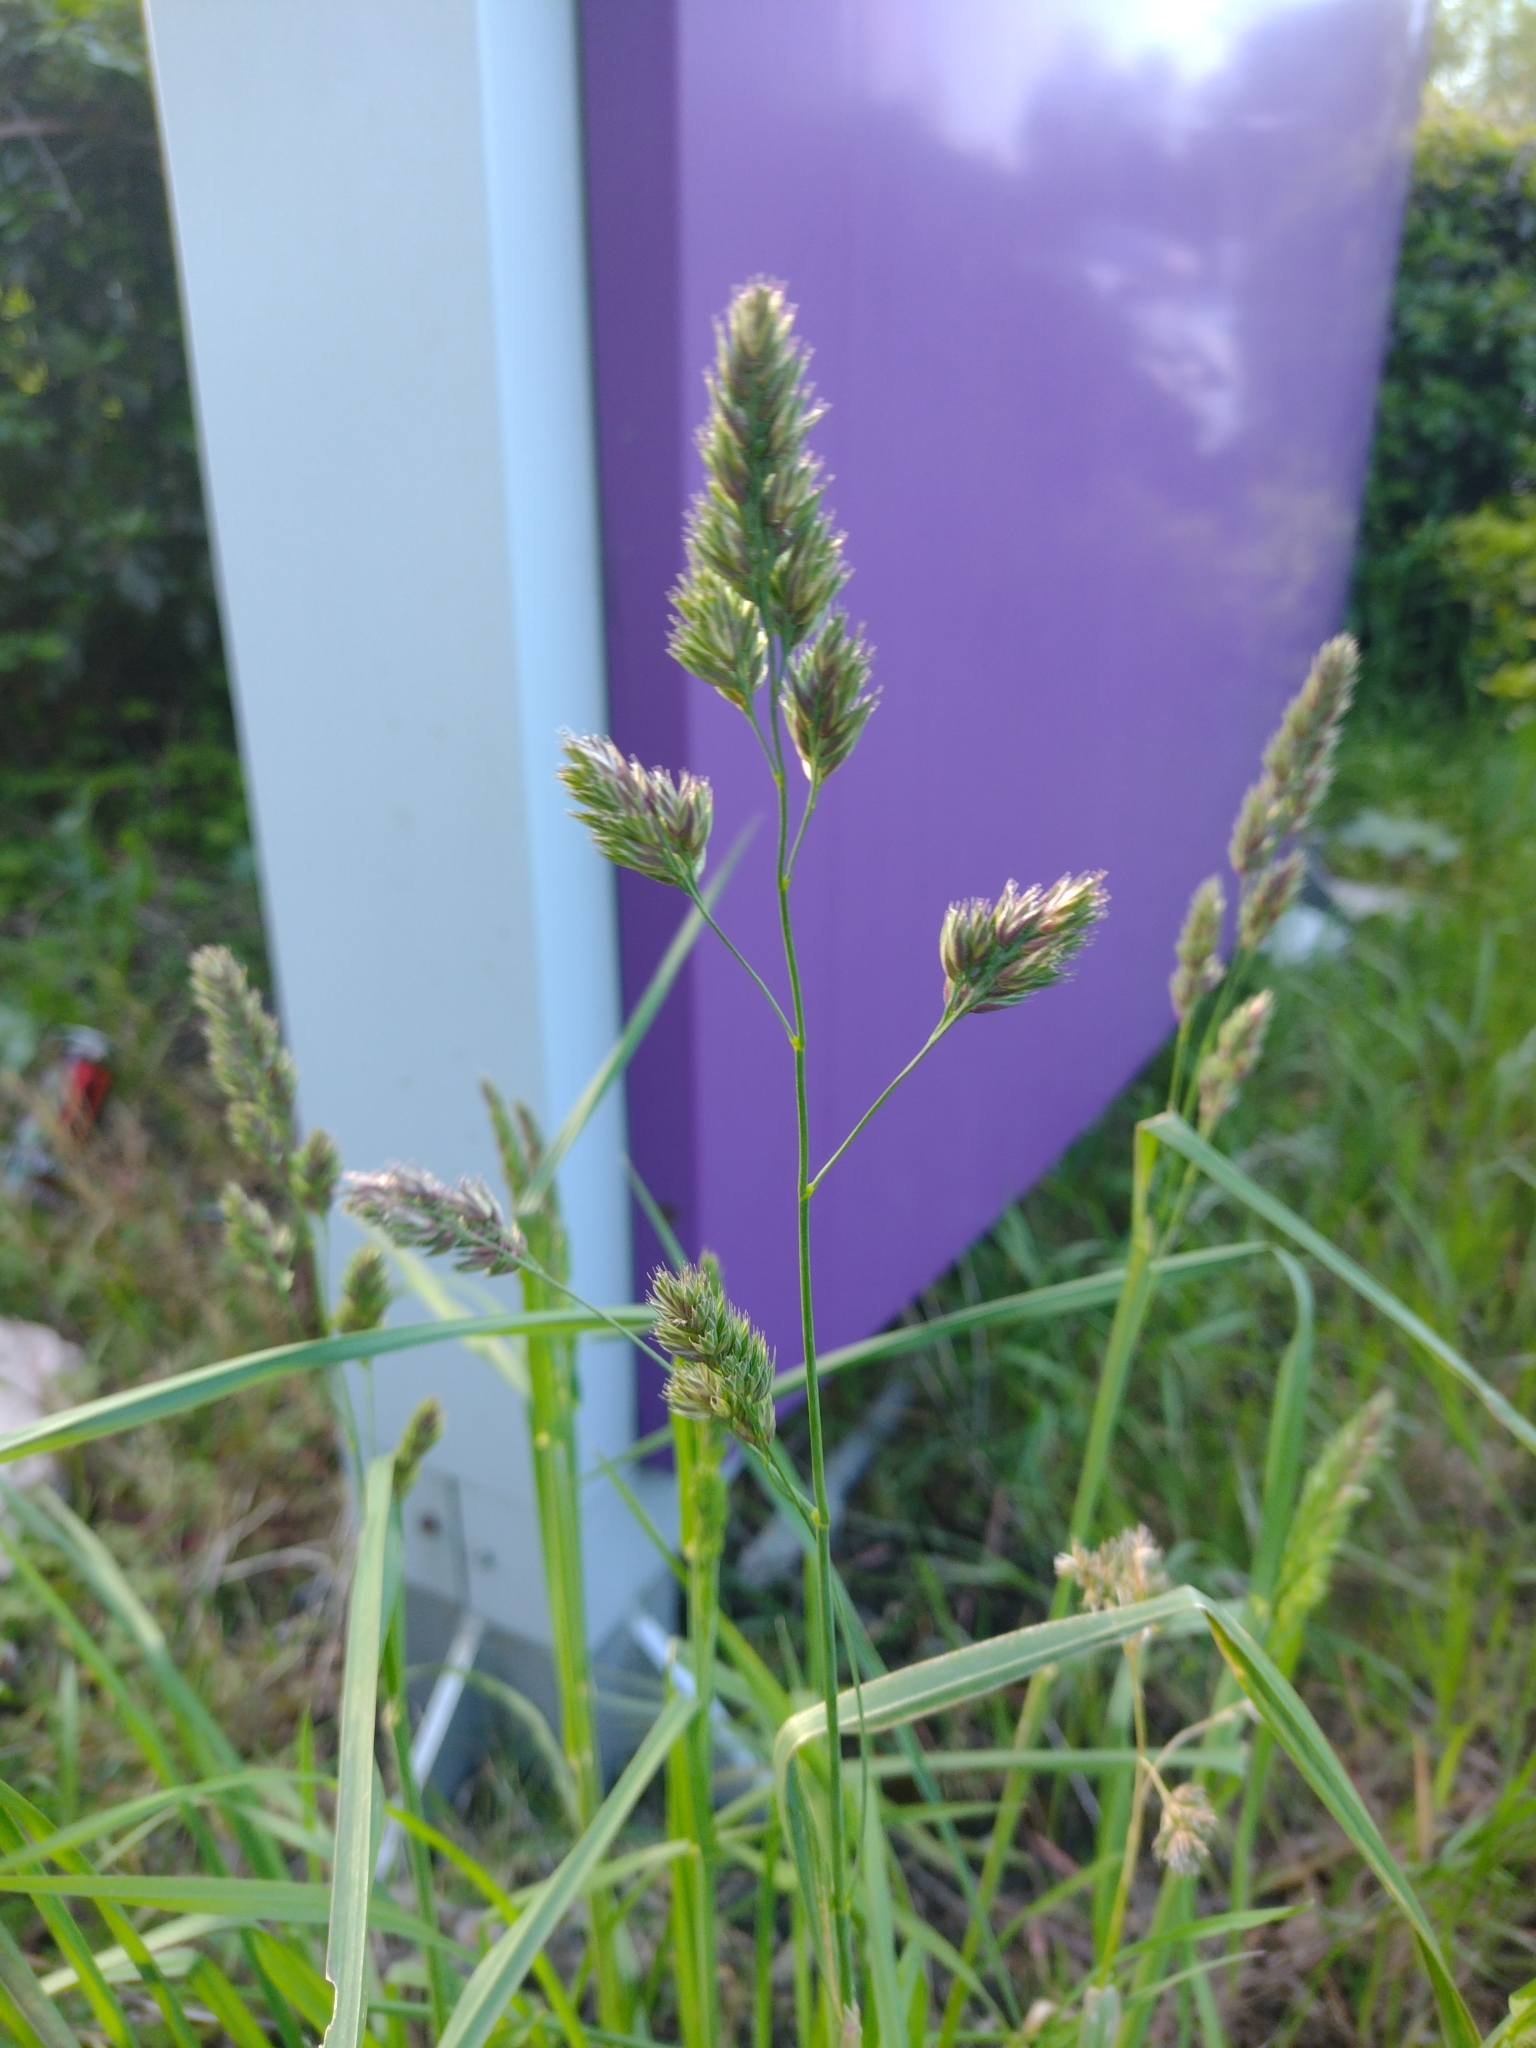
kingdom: Plantae
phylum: Tracheophyta
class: Liliopsida
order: Poales
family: Poaceae
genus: Dactylis
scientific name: Dactylis glomerata
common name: Orchardgrass
